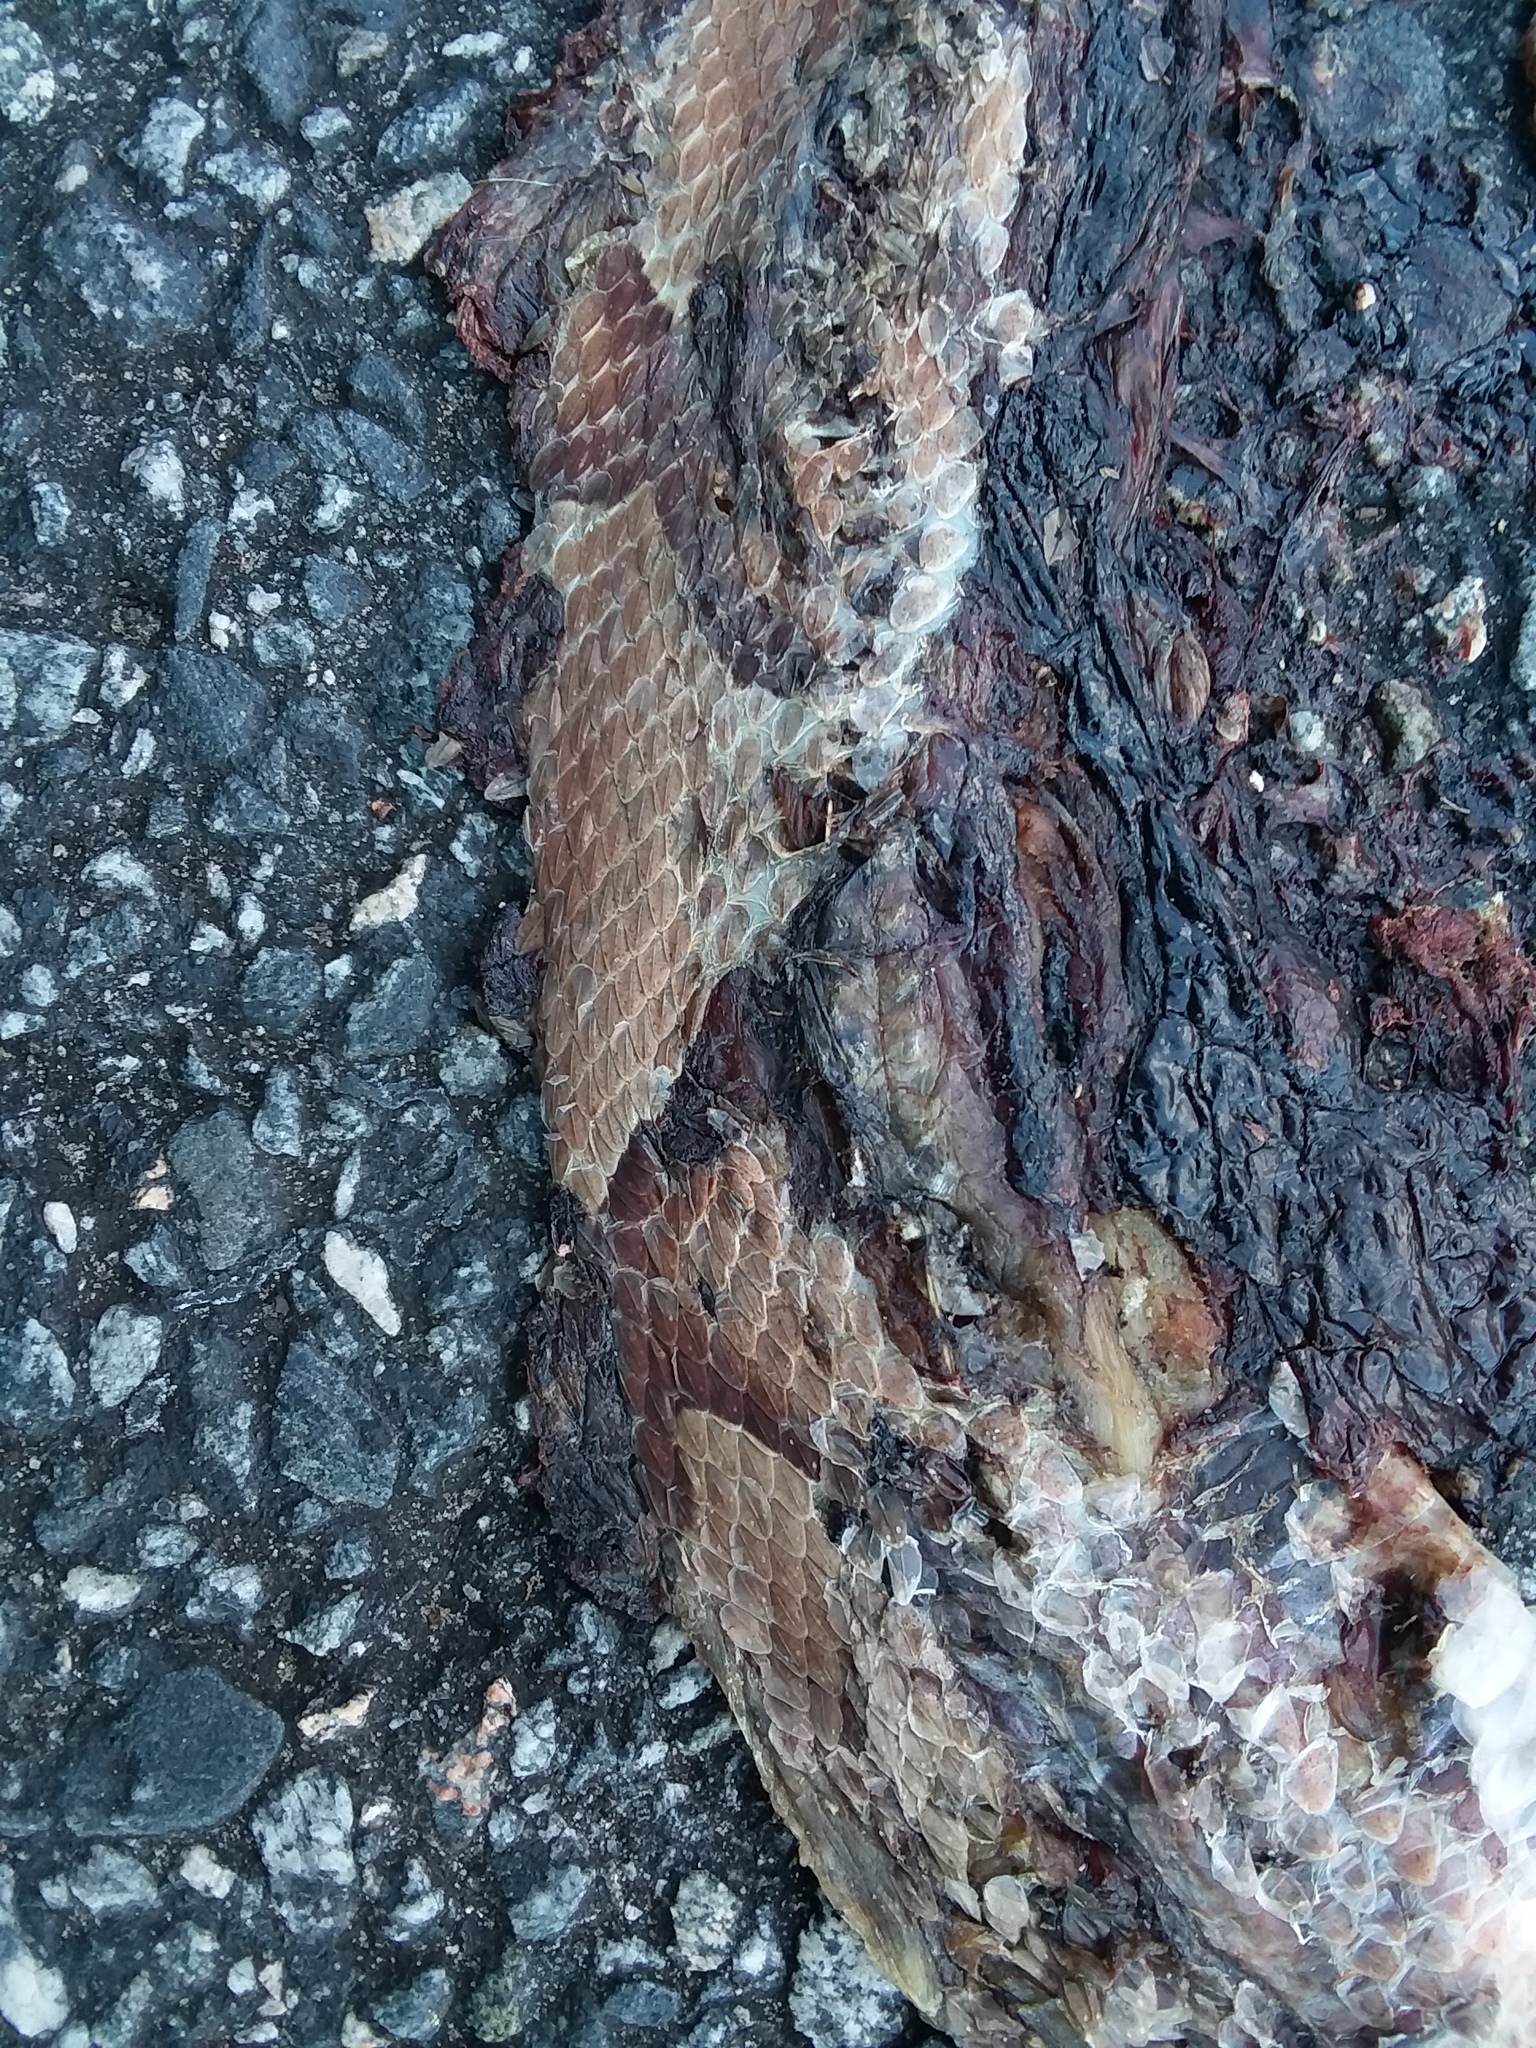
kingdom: Animalia
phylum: Chordata
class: Squamata
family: Viperidae
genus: Agkistrodon
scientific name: Agkistrodon contortrix
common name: Northern copperhead
